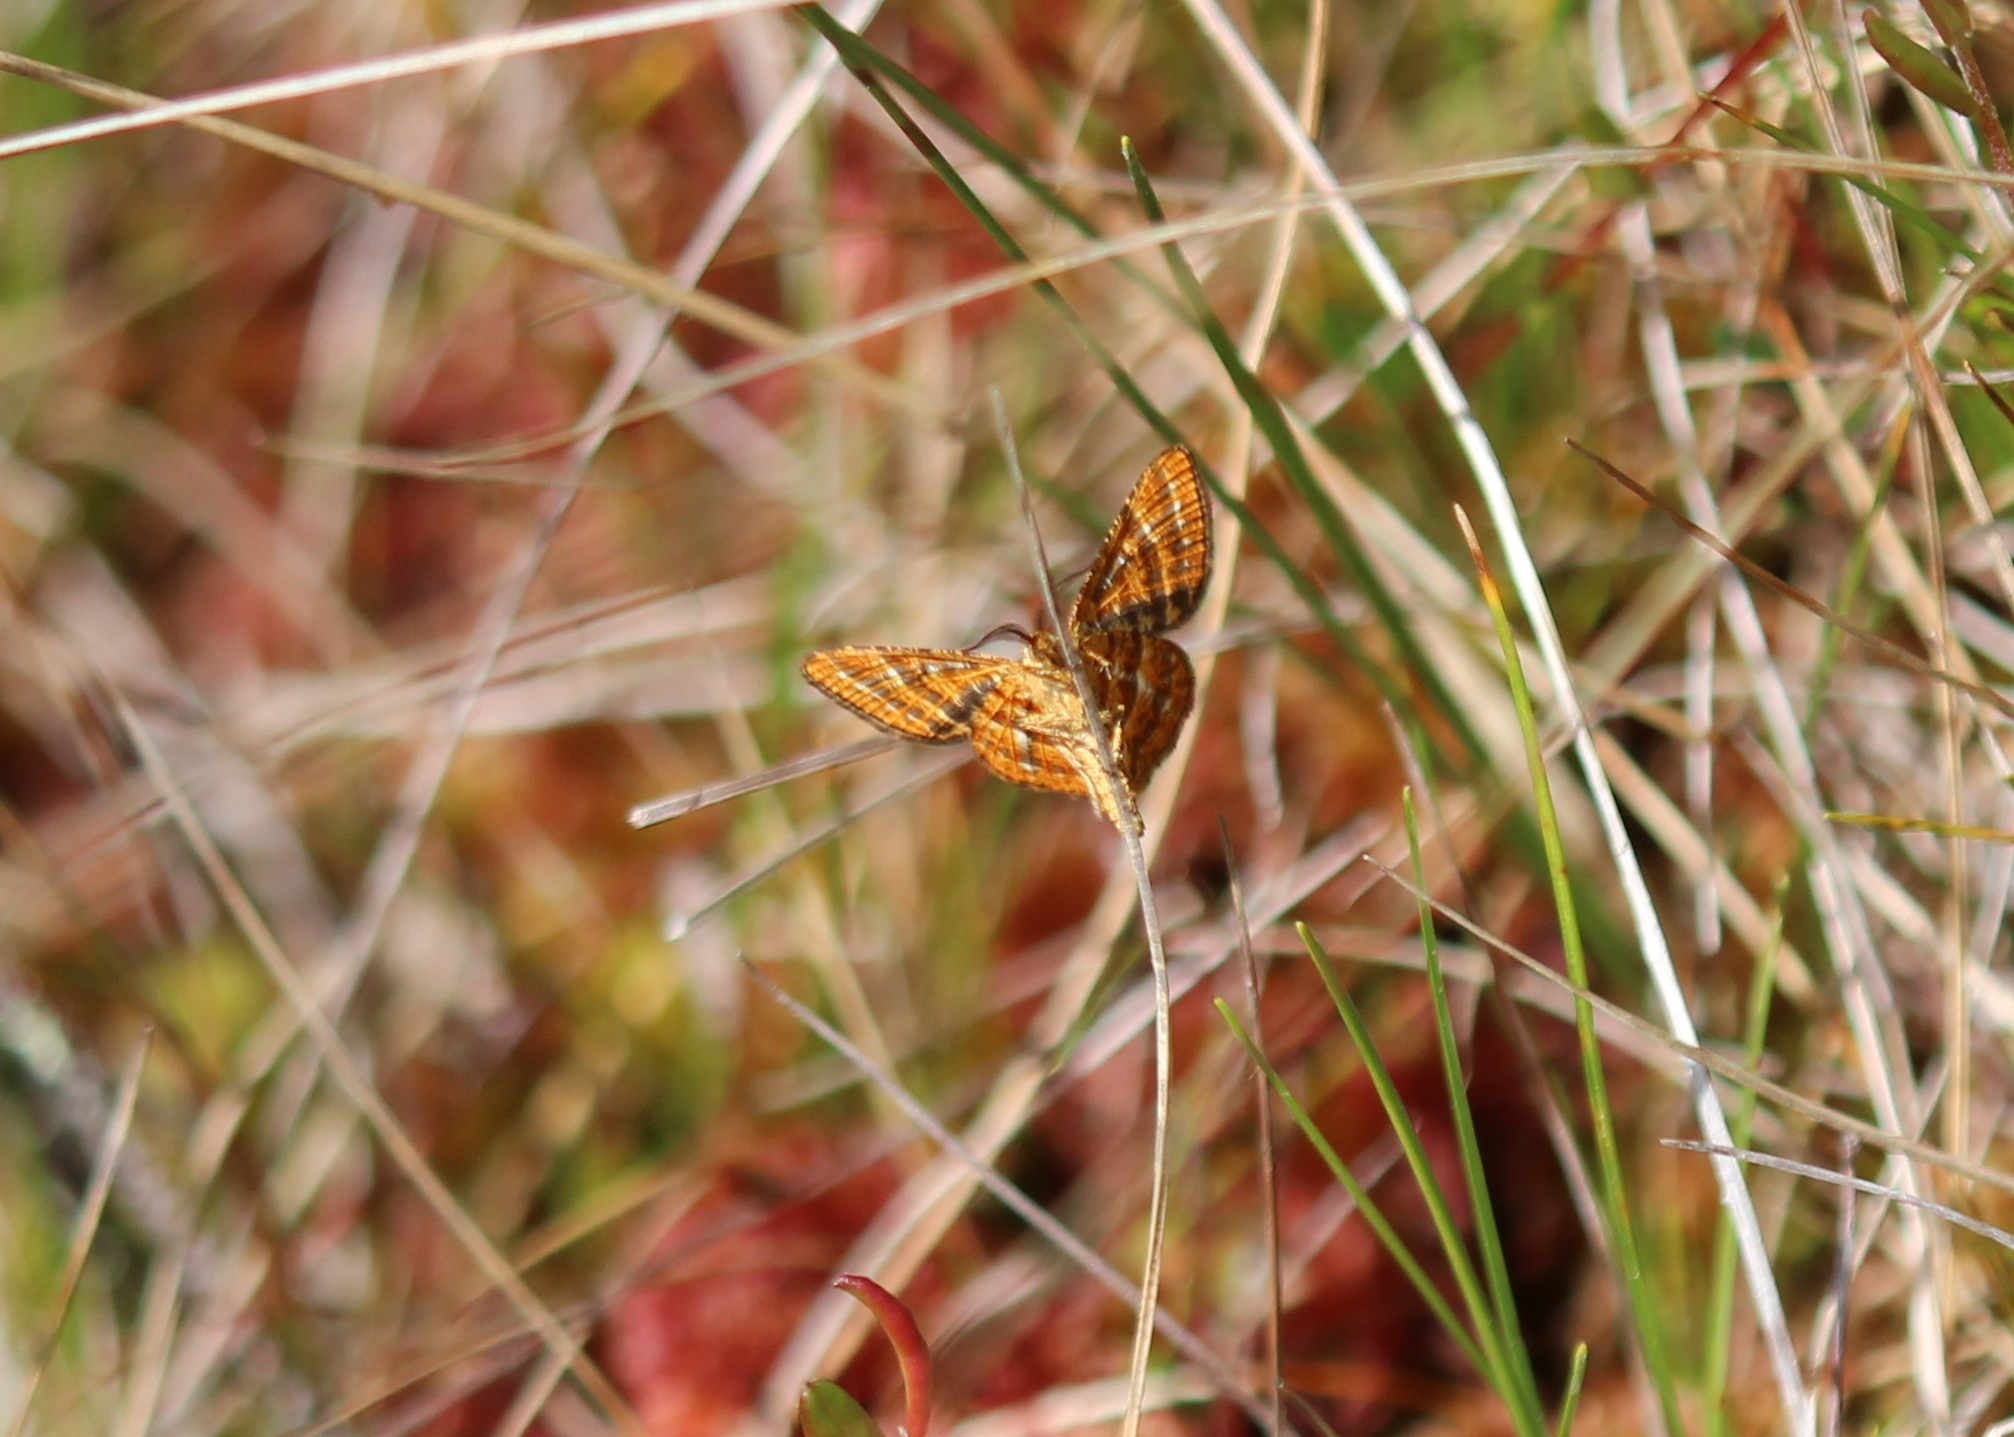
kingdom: Animalia
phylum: Arthropoda
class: Insecta
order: Lepidoptera
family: Geometridae
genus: Macaria
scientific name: Macaria truncataria
